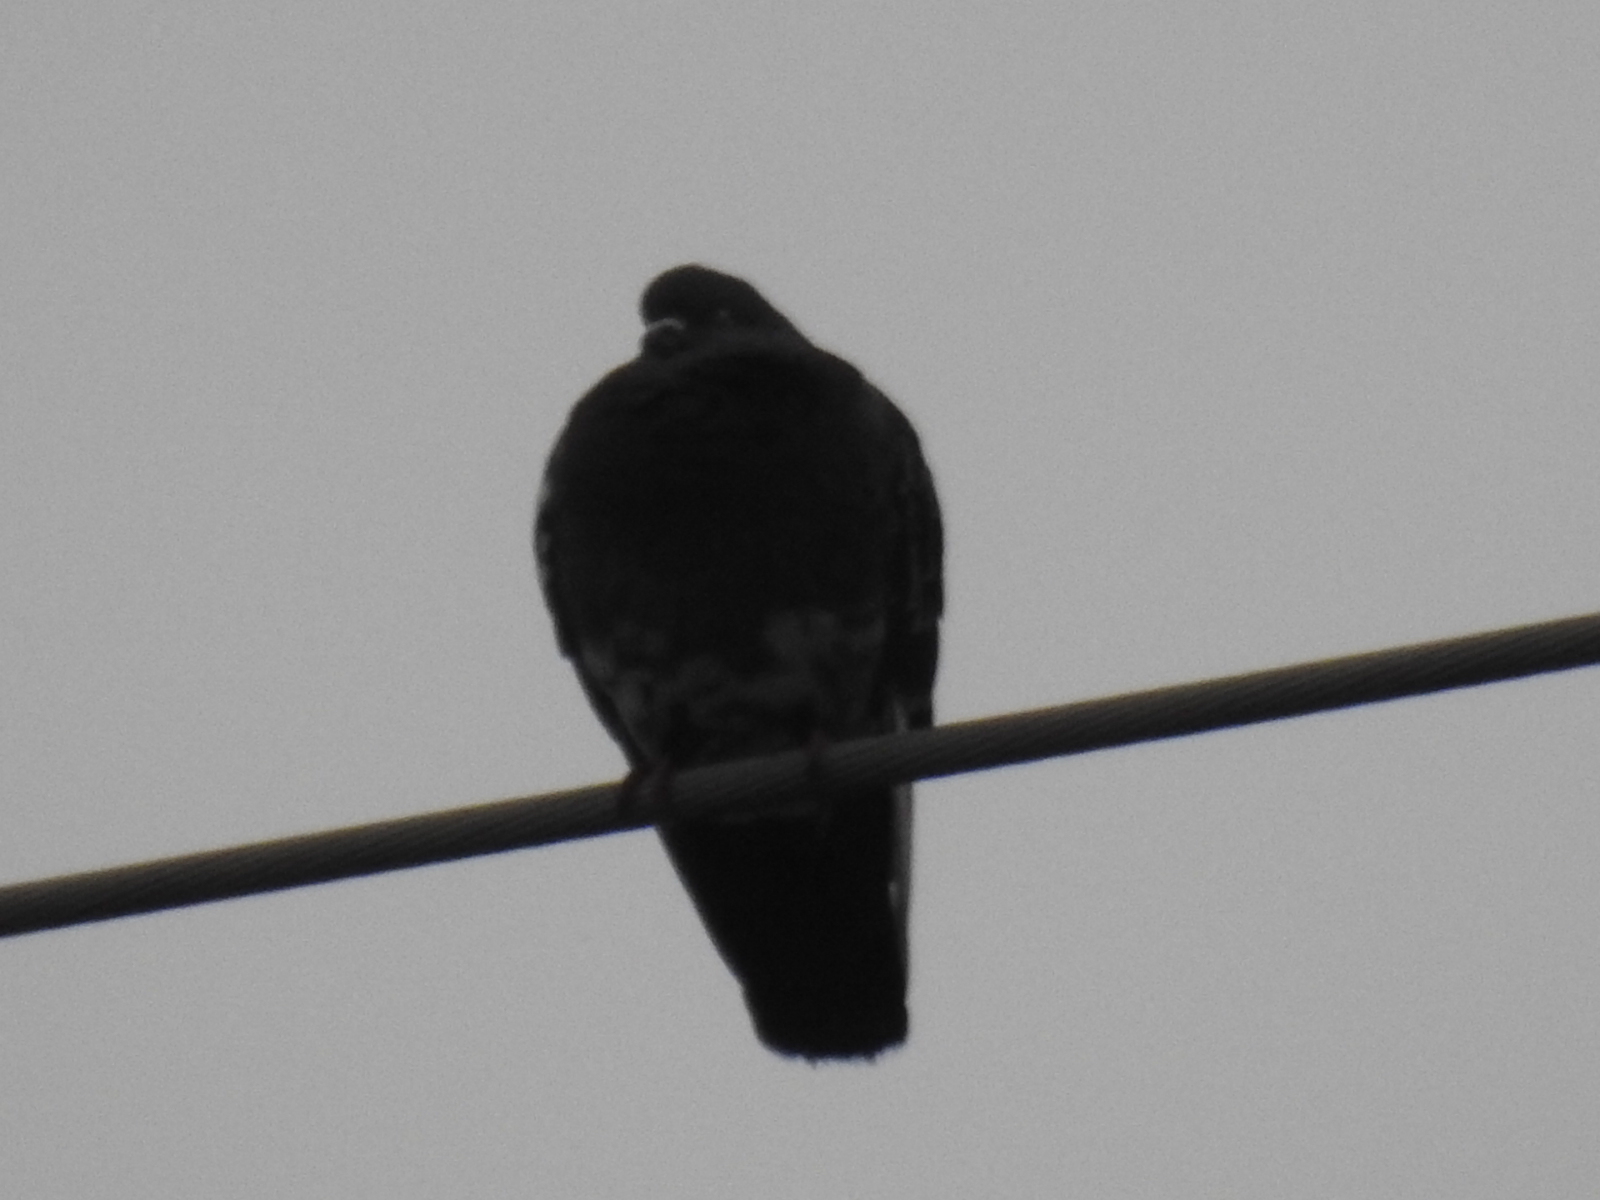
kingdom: Animalia
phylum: Chordata
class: Aves
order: Columbiformes
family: Columbidae
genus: Columba
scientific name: Columba livia
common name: Rock pigeon
